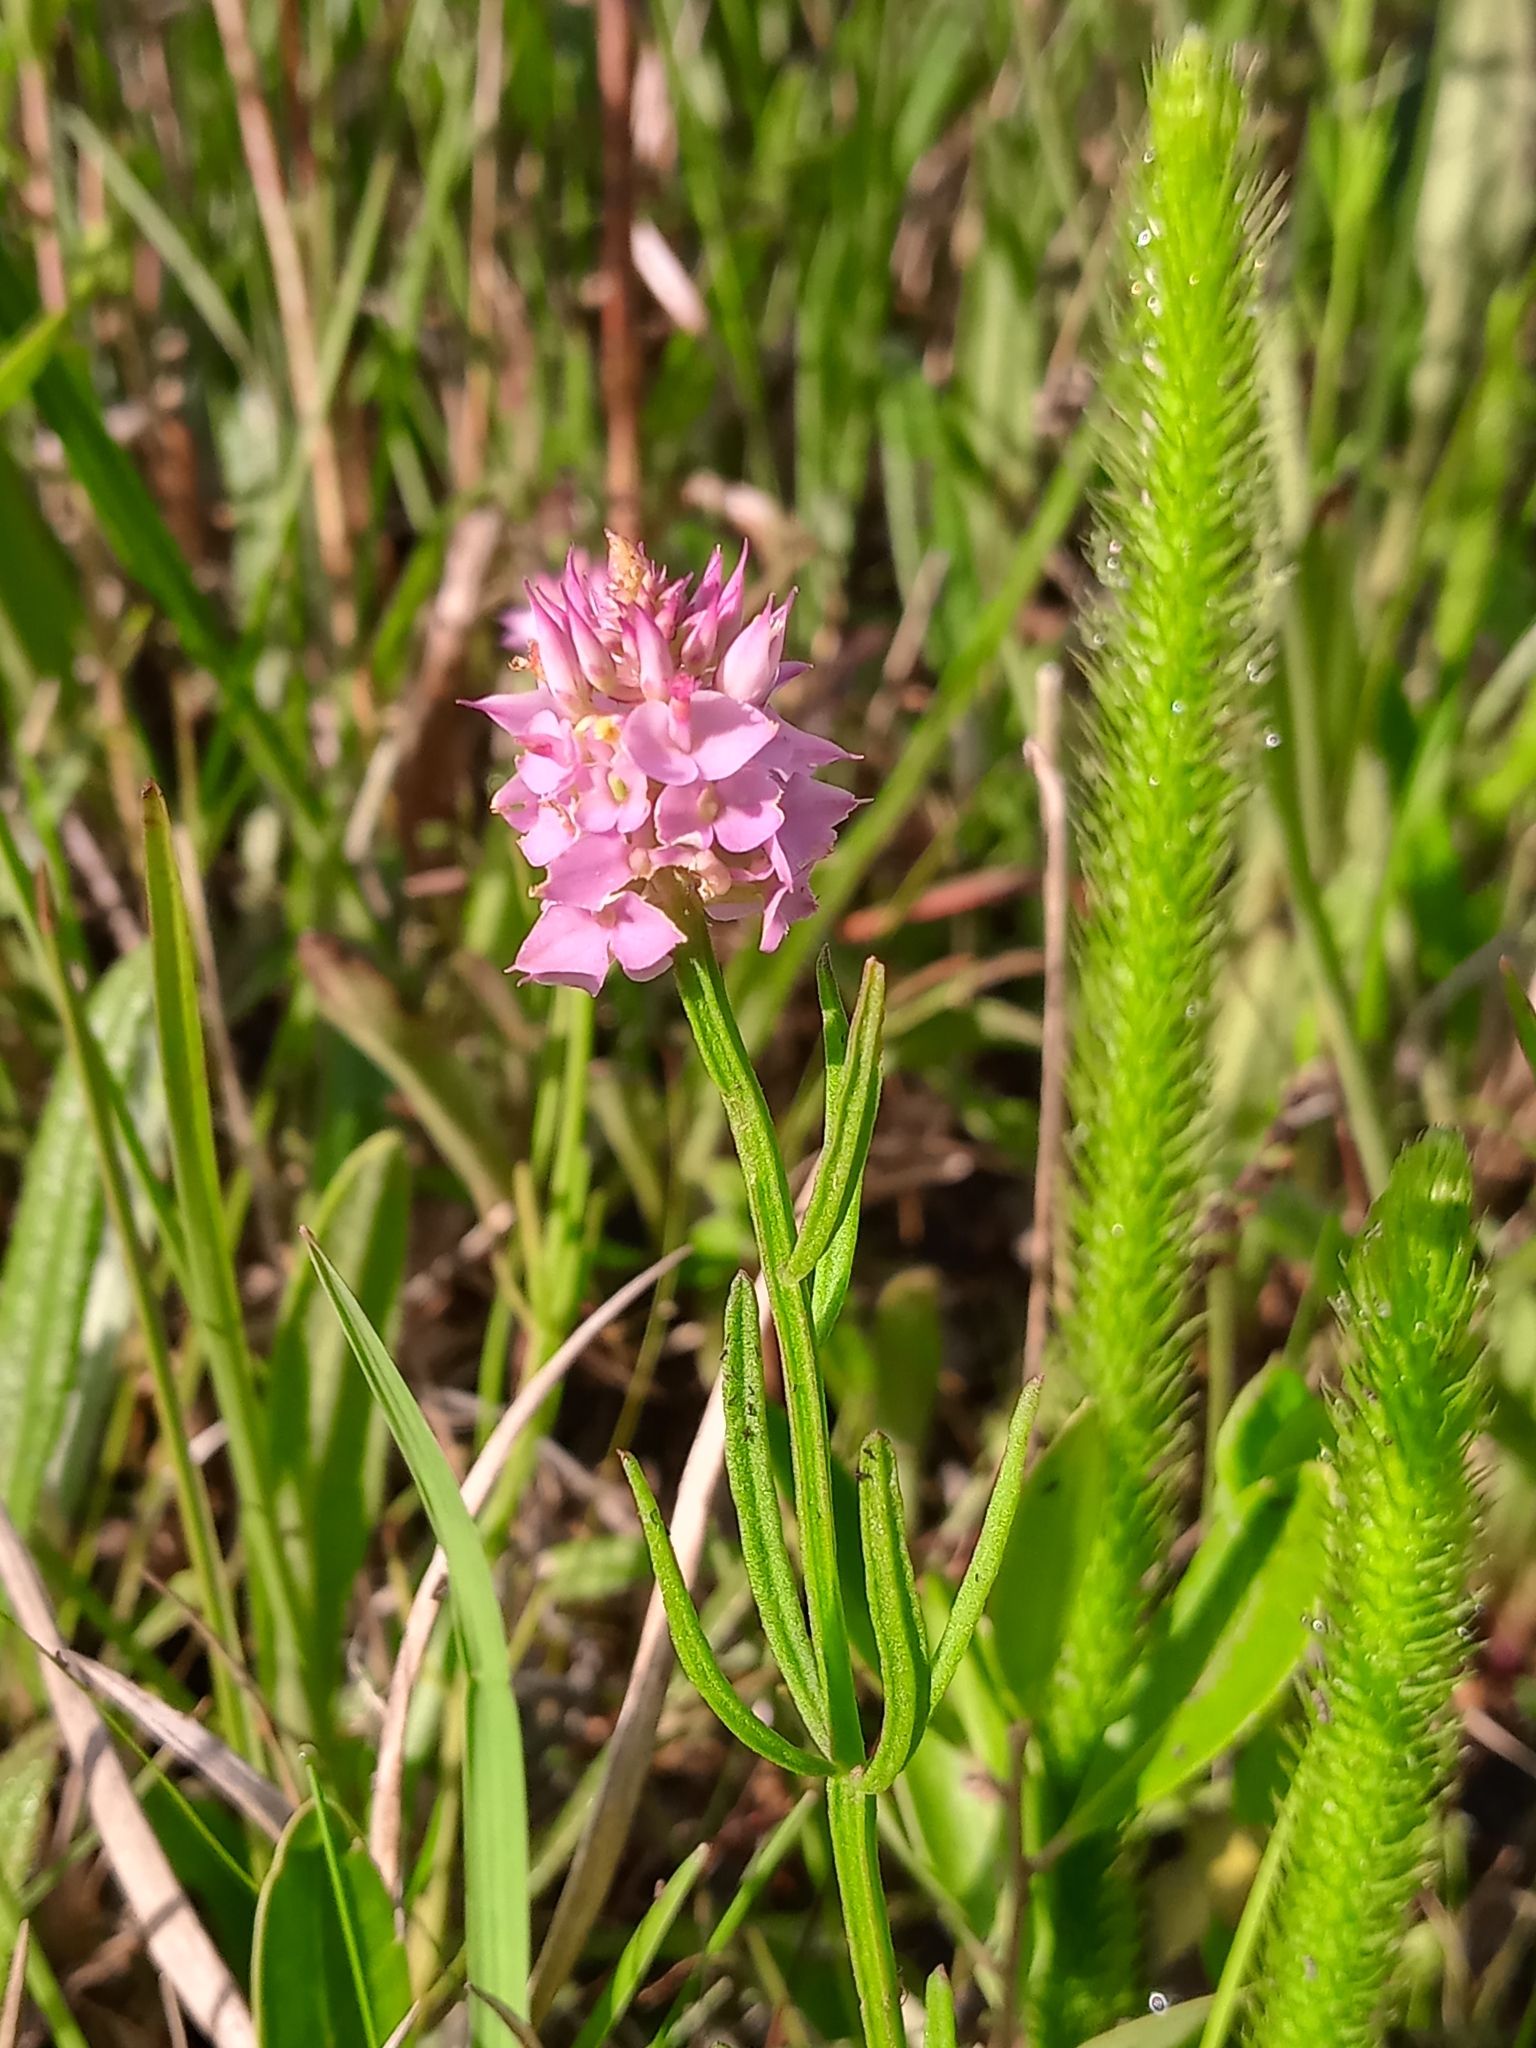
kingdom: Plantae
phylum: Tracheophyta
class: Magnoliopsida
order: Fabales
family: Polygalaceae
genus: Polygala
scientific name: Polygala cruciata
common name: Drumheads
